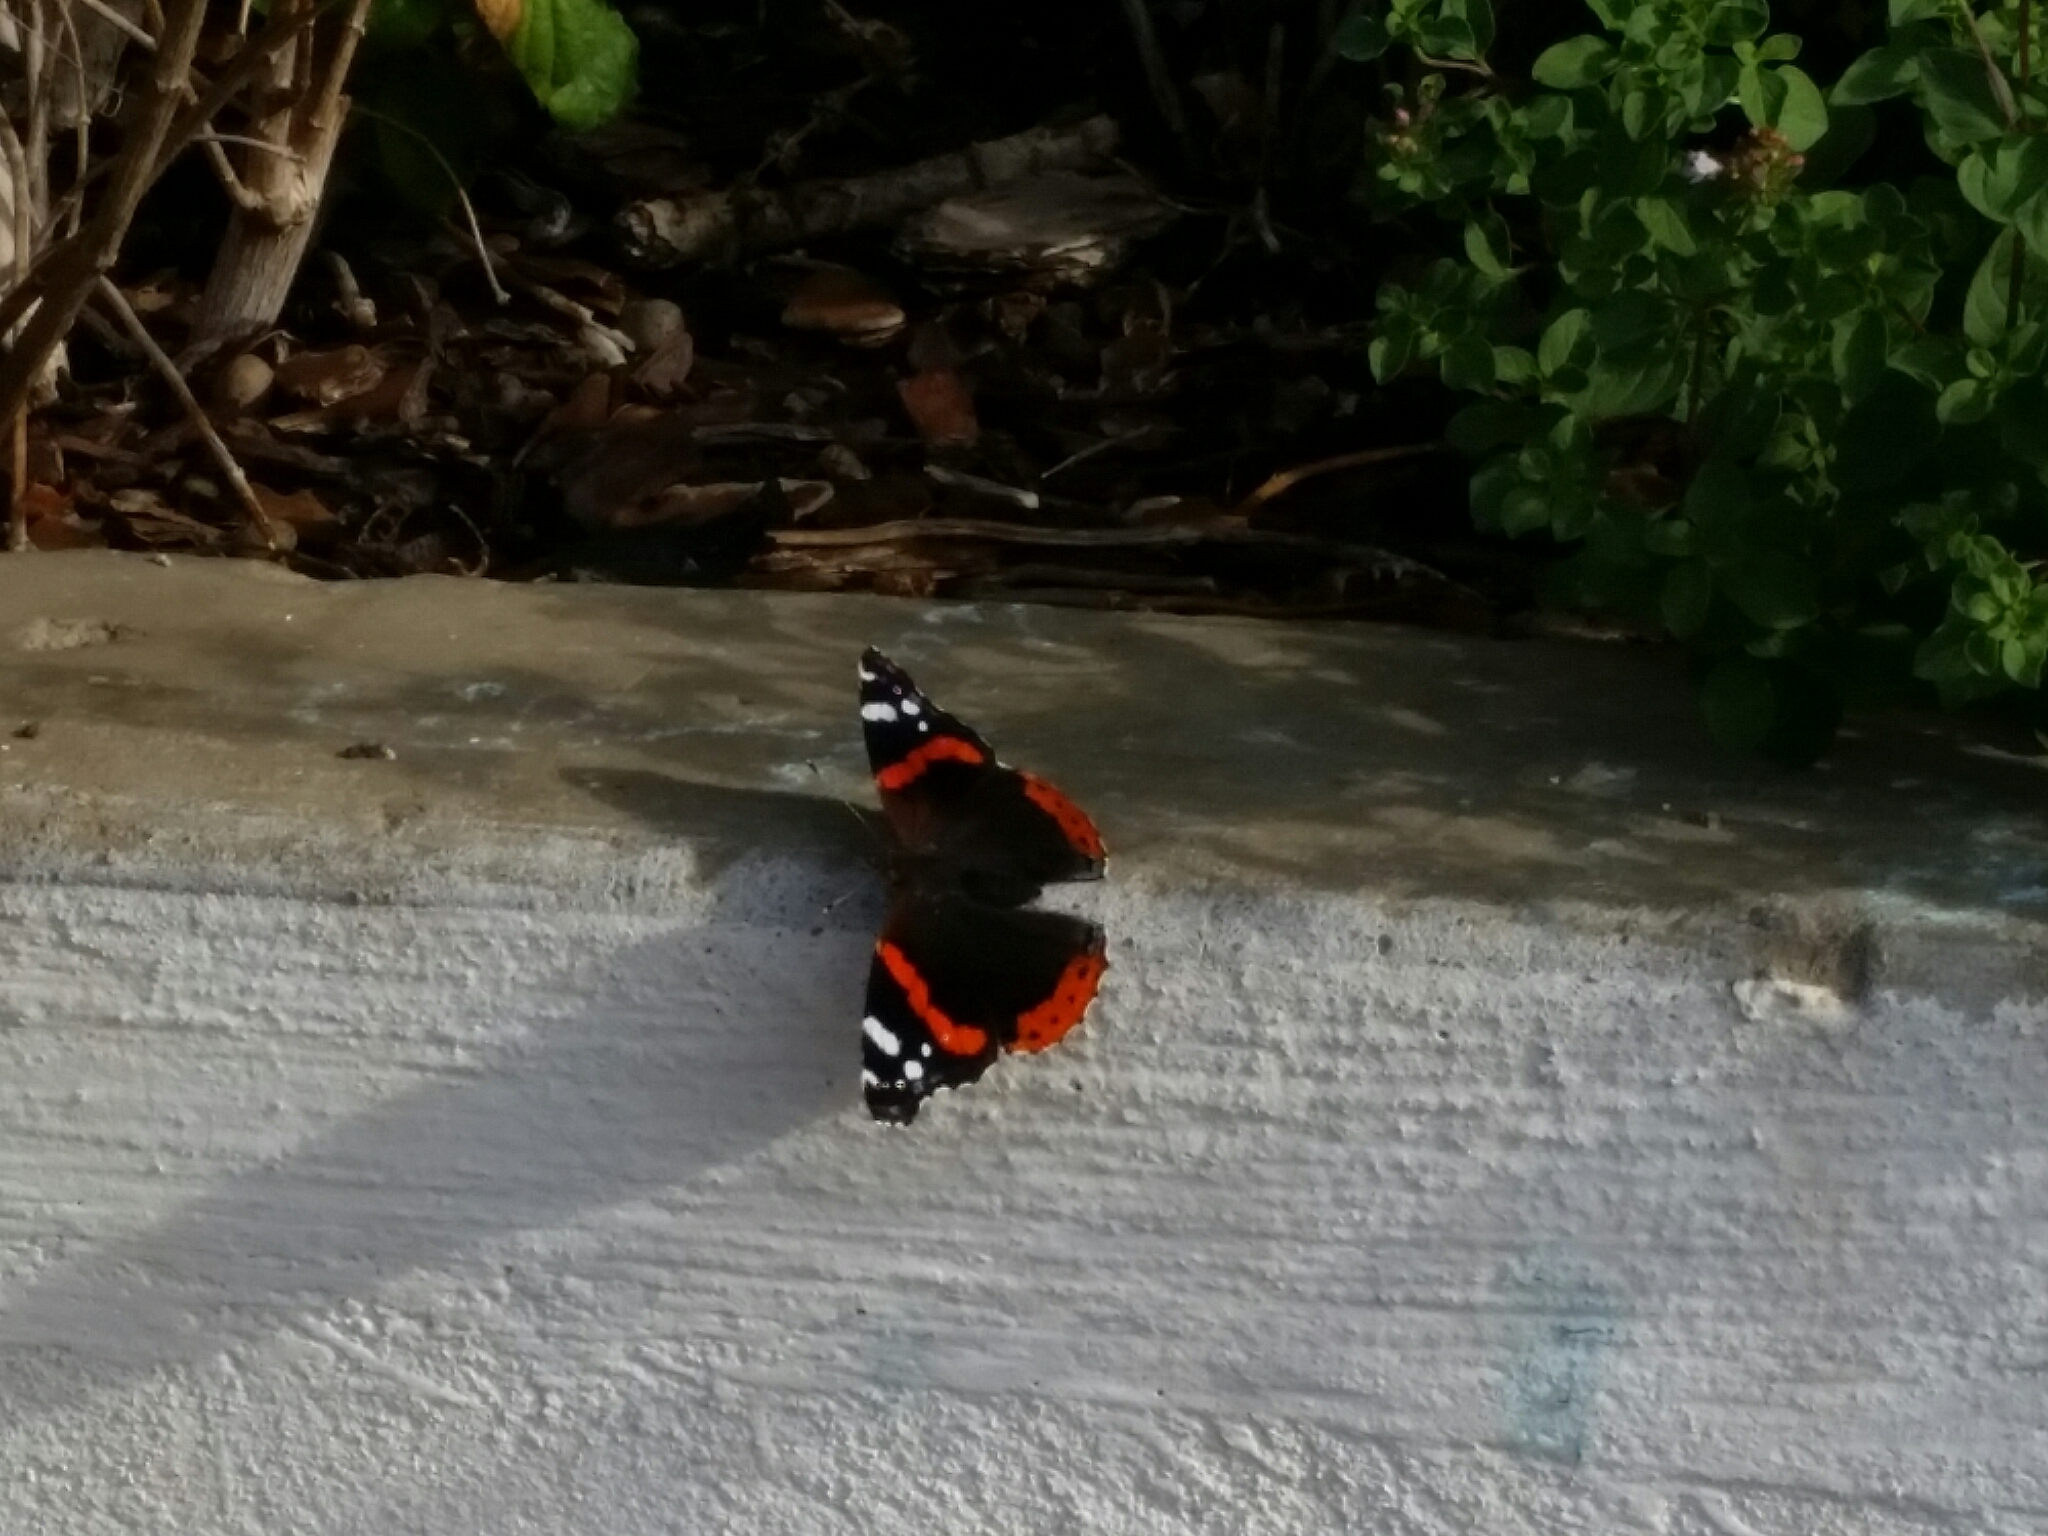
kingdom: Animalia
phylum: Arthropoda
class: Insecta
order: Lepidoptera
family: Nymphalidae
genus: Vanessa
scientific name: Vanessa atalanta
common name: Red admiral
